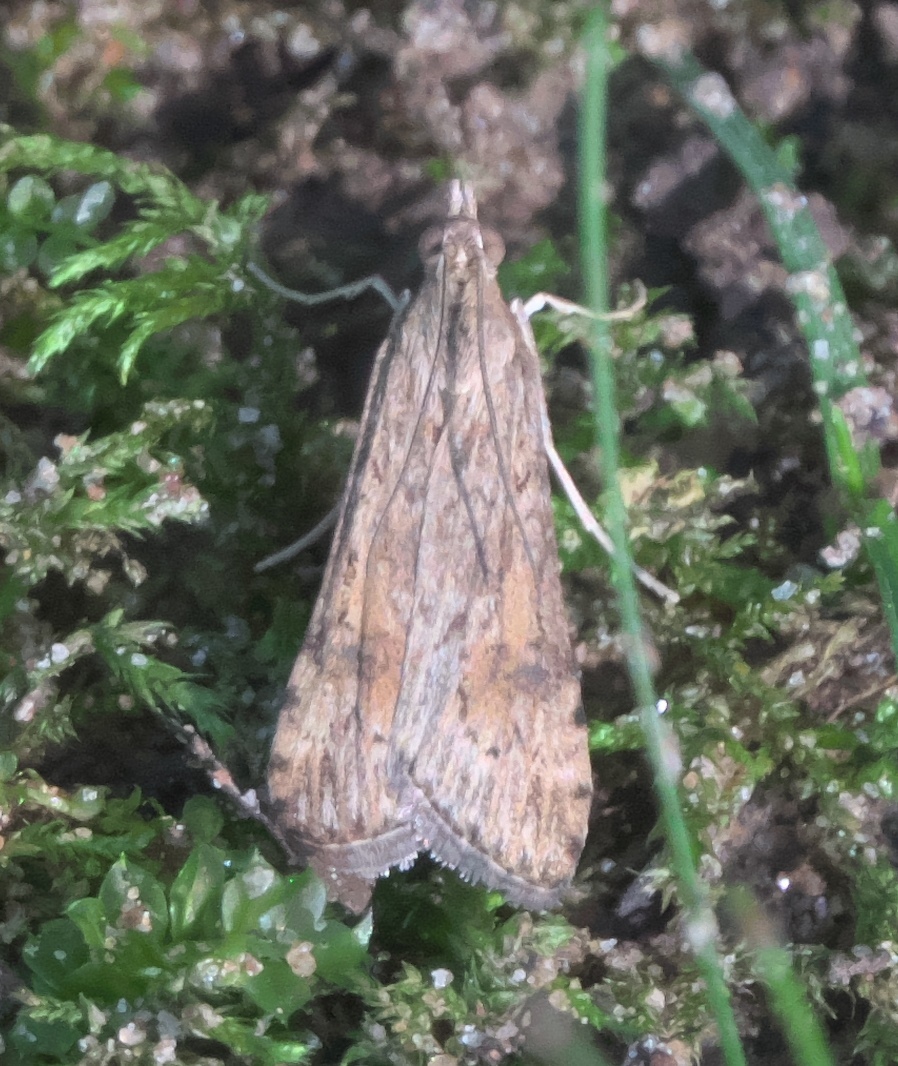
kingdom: Animalia
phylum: Arthropoda
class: Insecta
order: Lepidoptera
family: Crambidae
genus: Nomophila
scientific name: Nomophila nearctica
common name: American rush veneer
